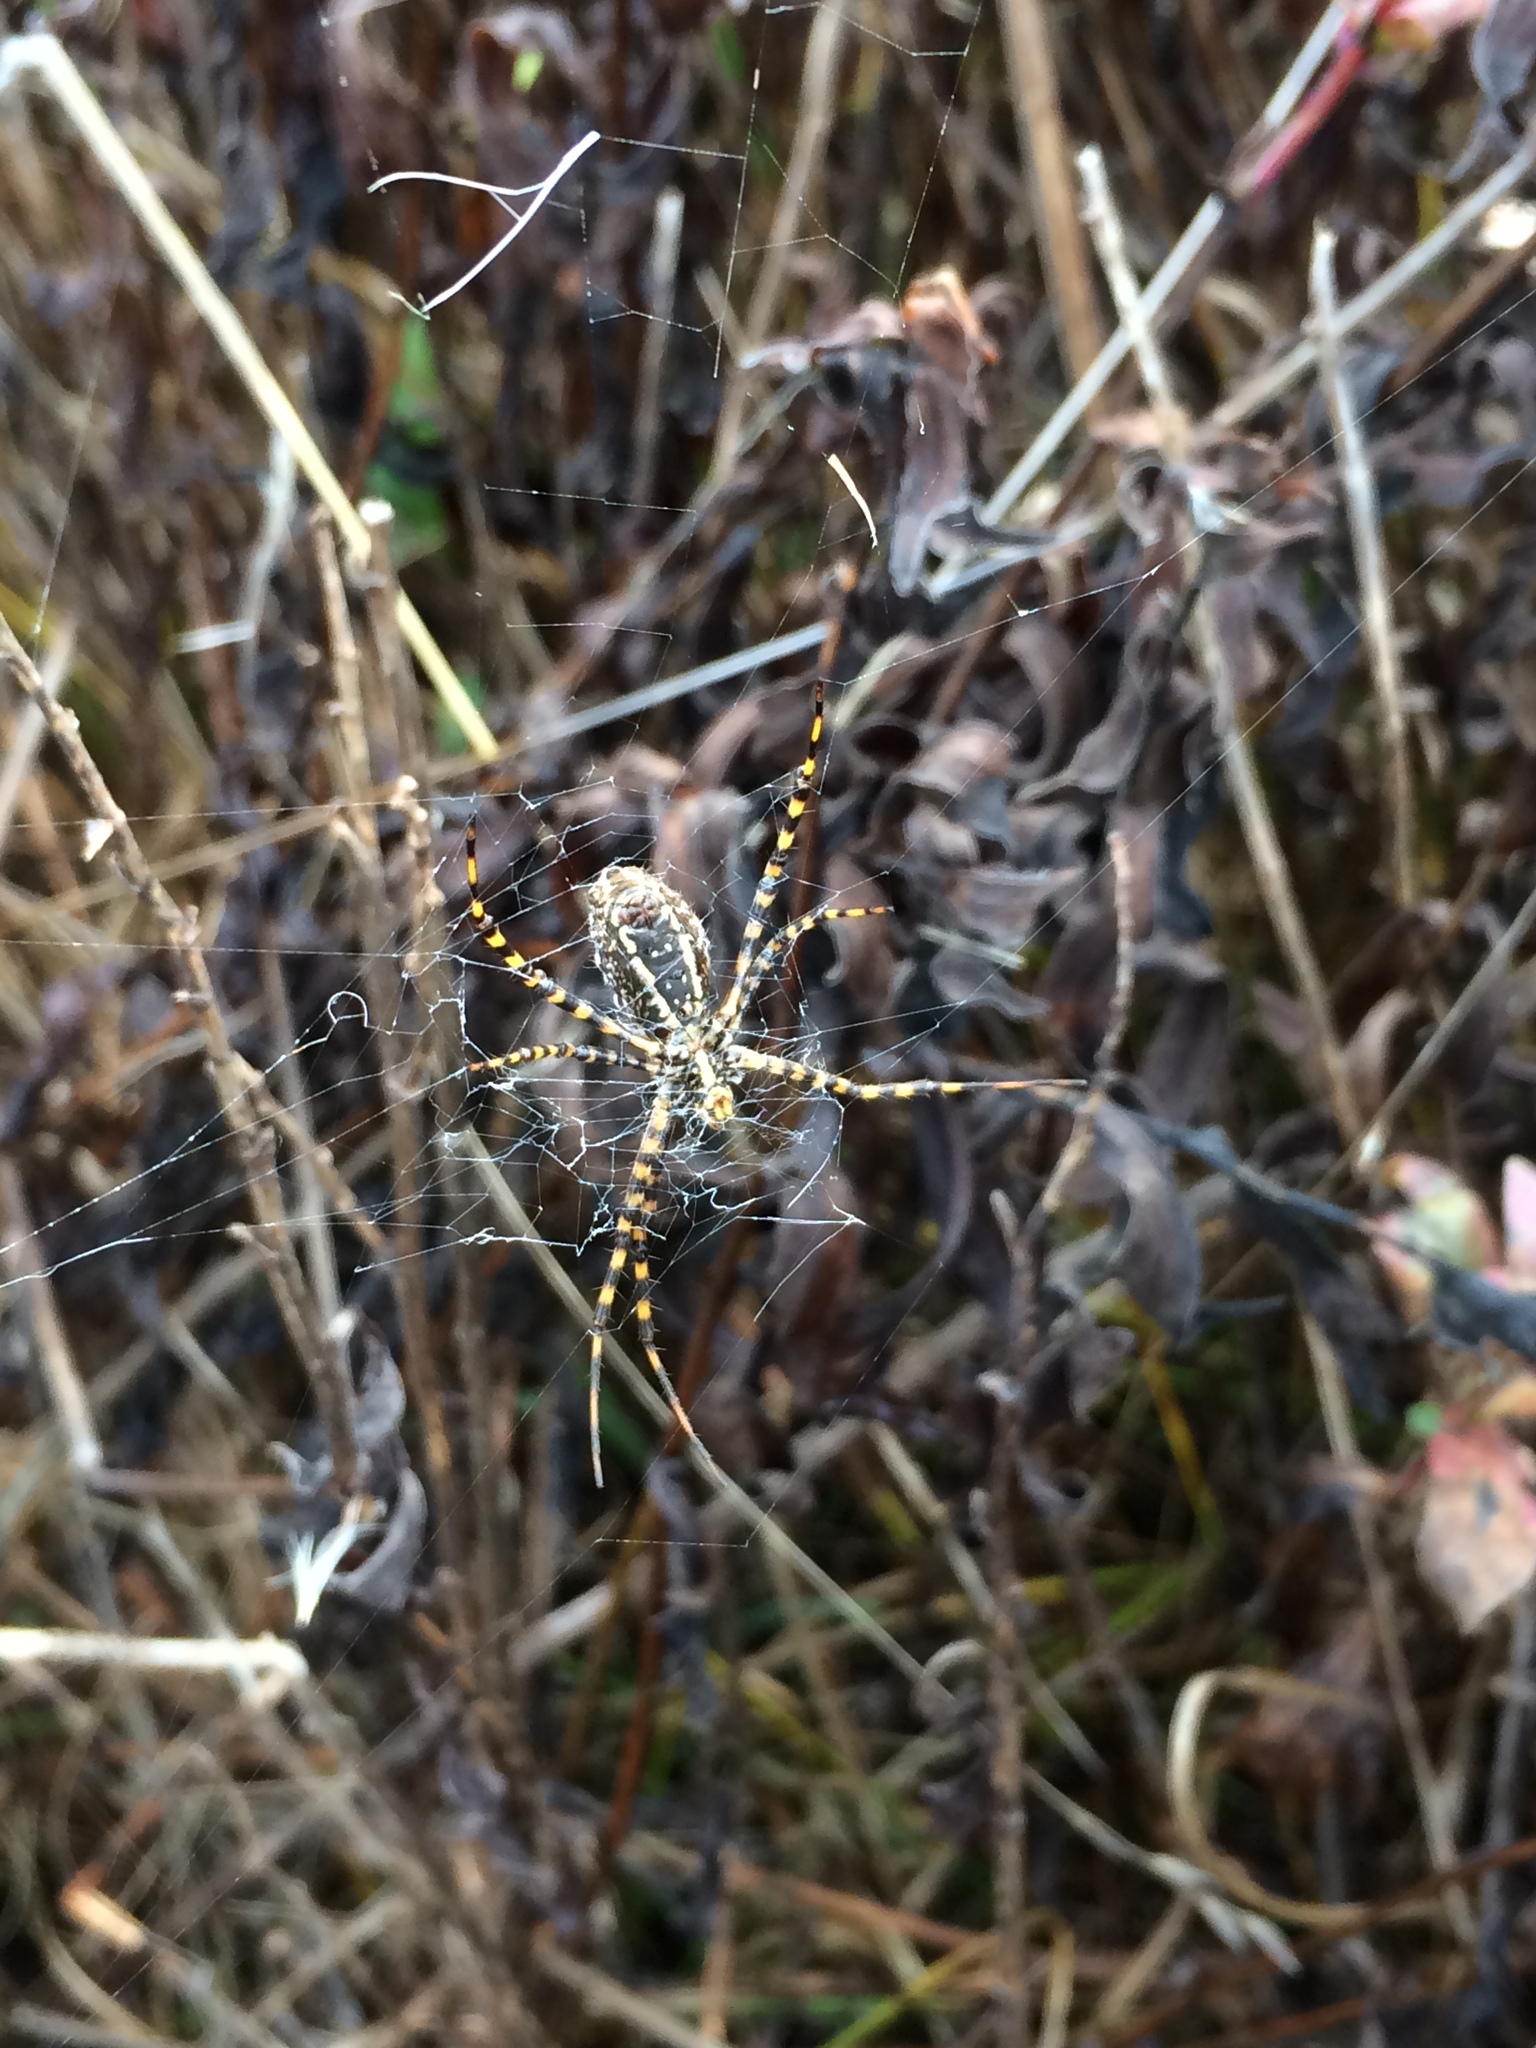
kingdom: Animalia
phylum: Arthropoda
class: Arachnida
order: Araneae
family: Araneidae
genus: Argiope
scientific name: Argiope trifasciata
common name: Banded garden spider
